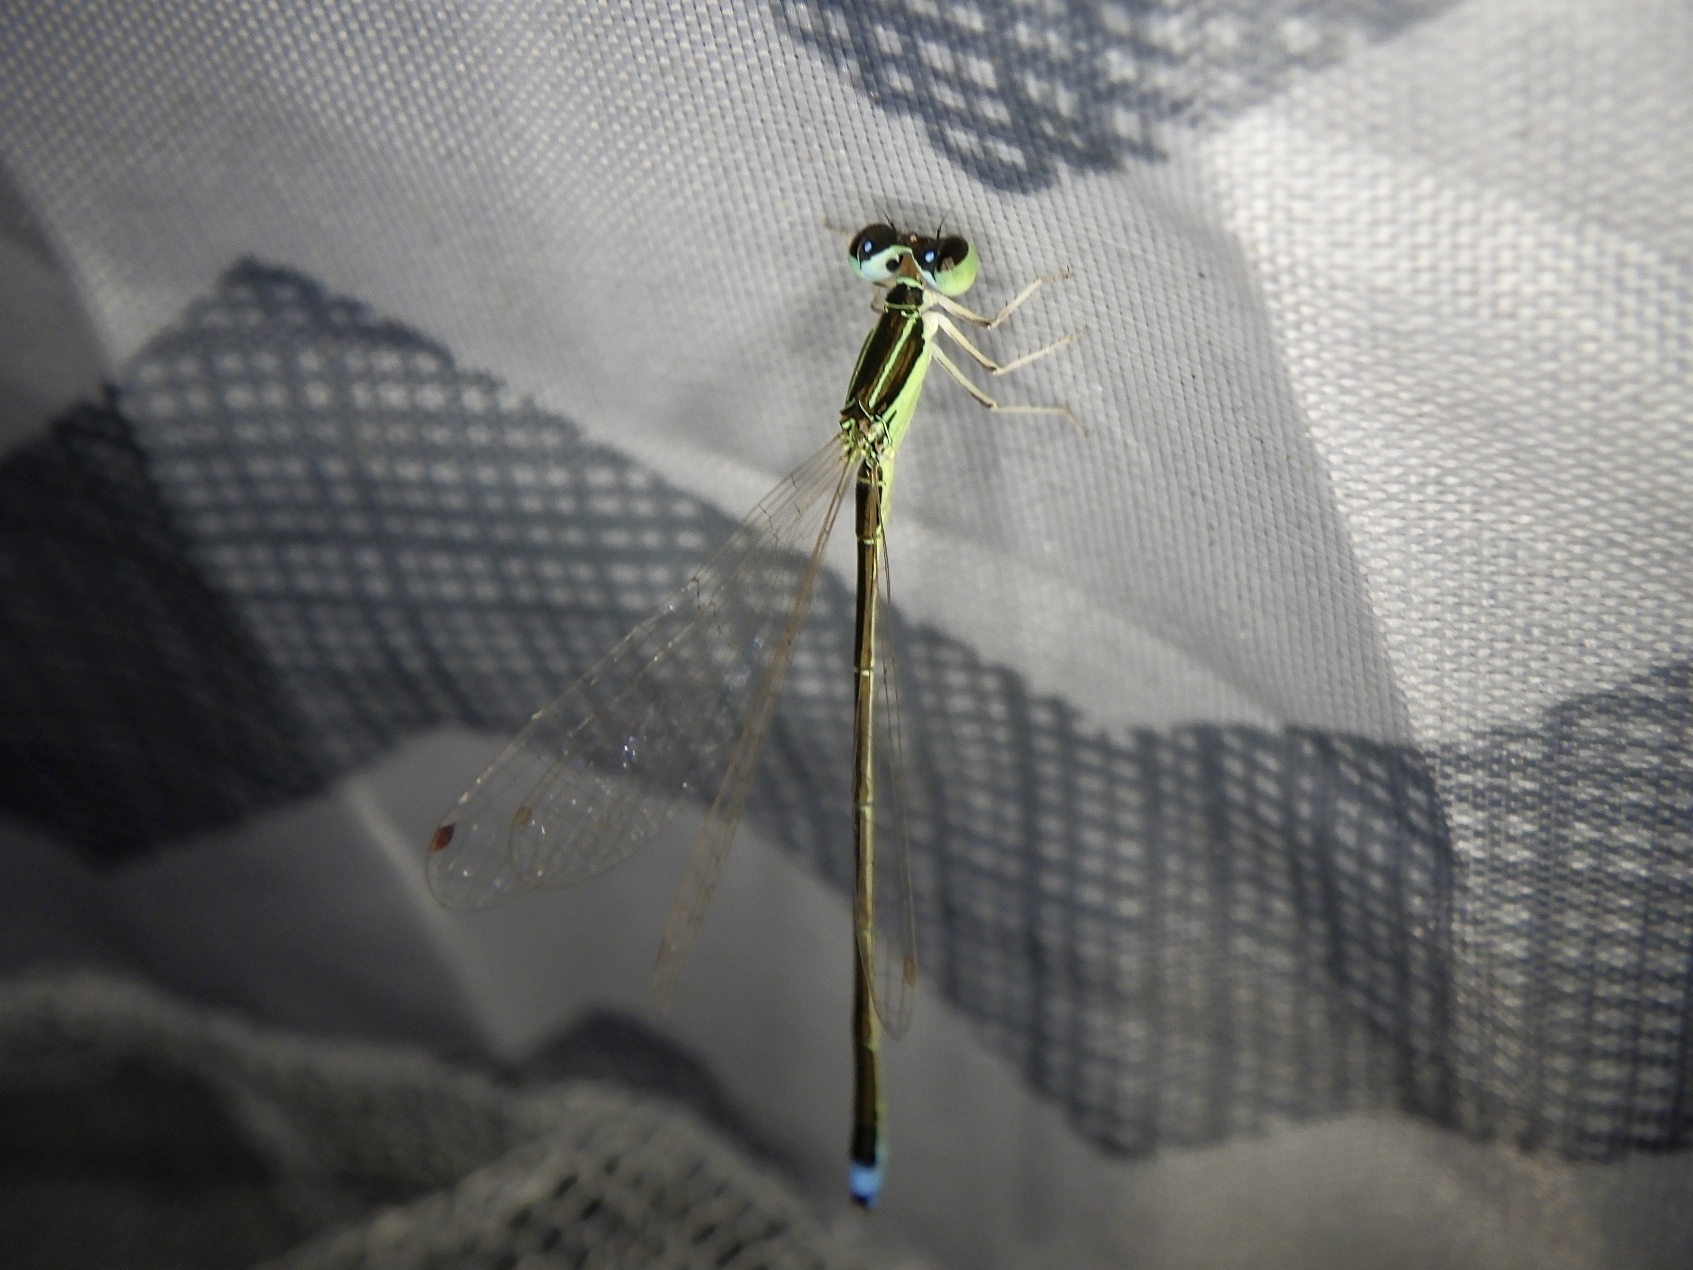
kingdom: Animalia
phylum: Arthropoda
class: Insecta
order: Odonata
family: Coenagrionidae
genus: Ischnura
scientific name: Ischnura asiatica
